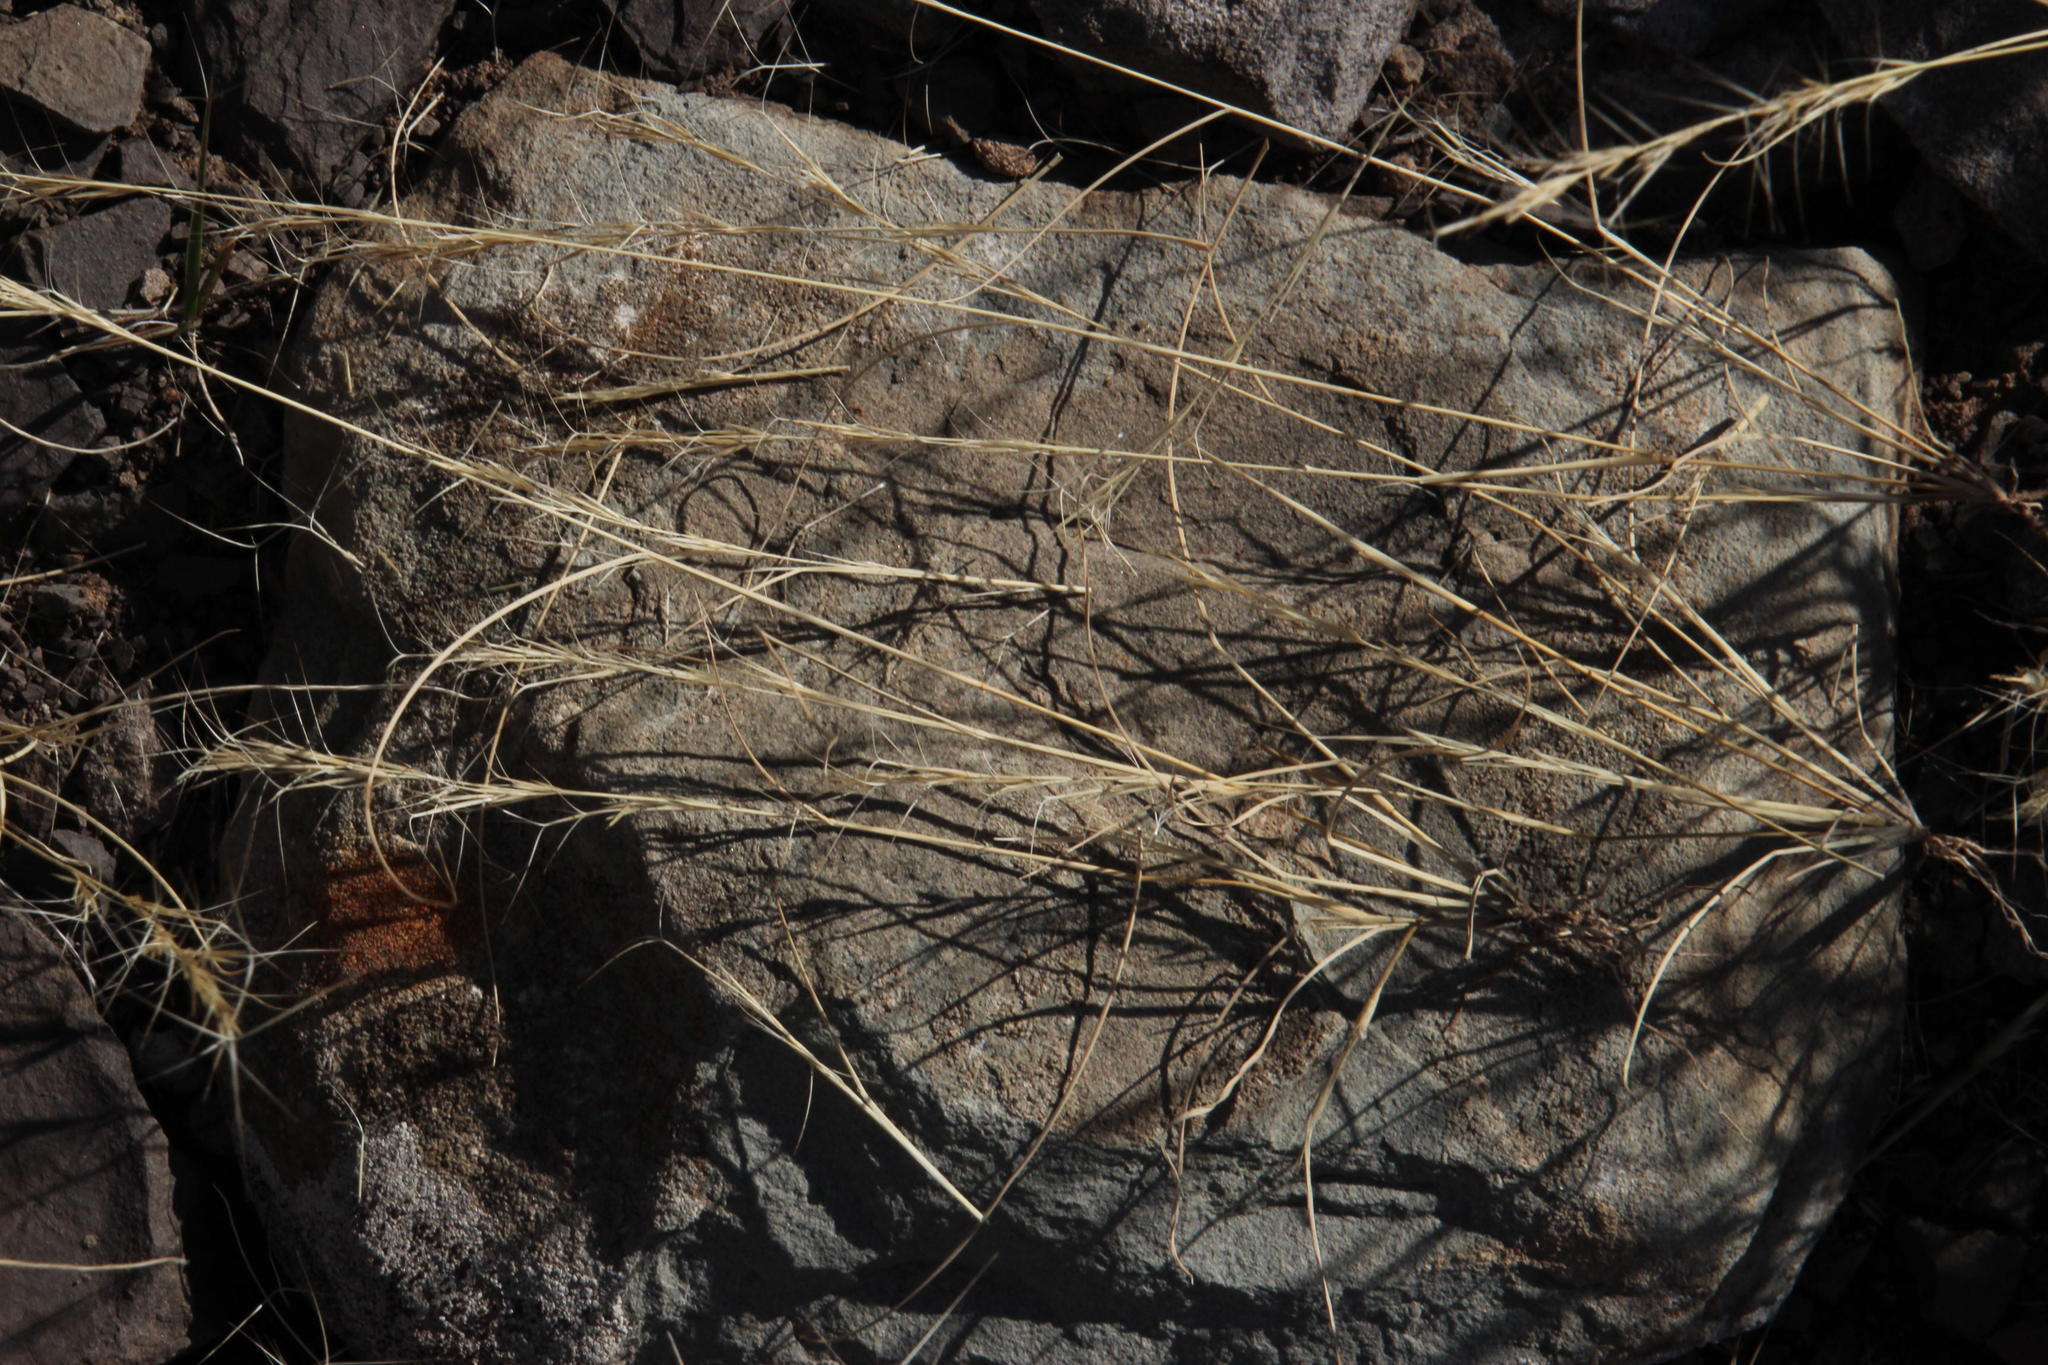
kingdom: Plantae
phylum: Tracheophyta
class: Liliopsida
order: Poales
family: Poaceae
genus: Aristida
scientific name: Aristida adscensionis
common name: Sixweeks threeawn
